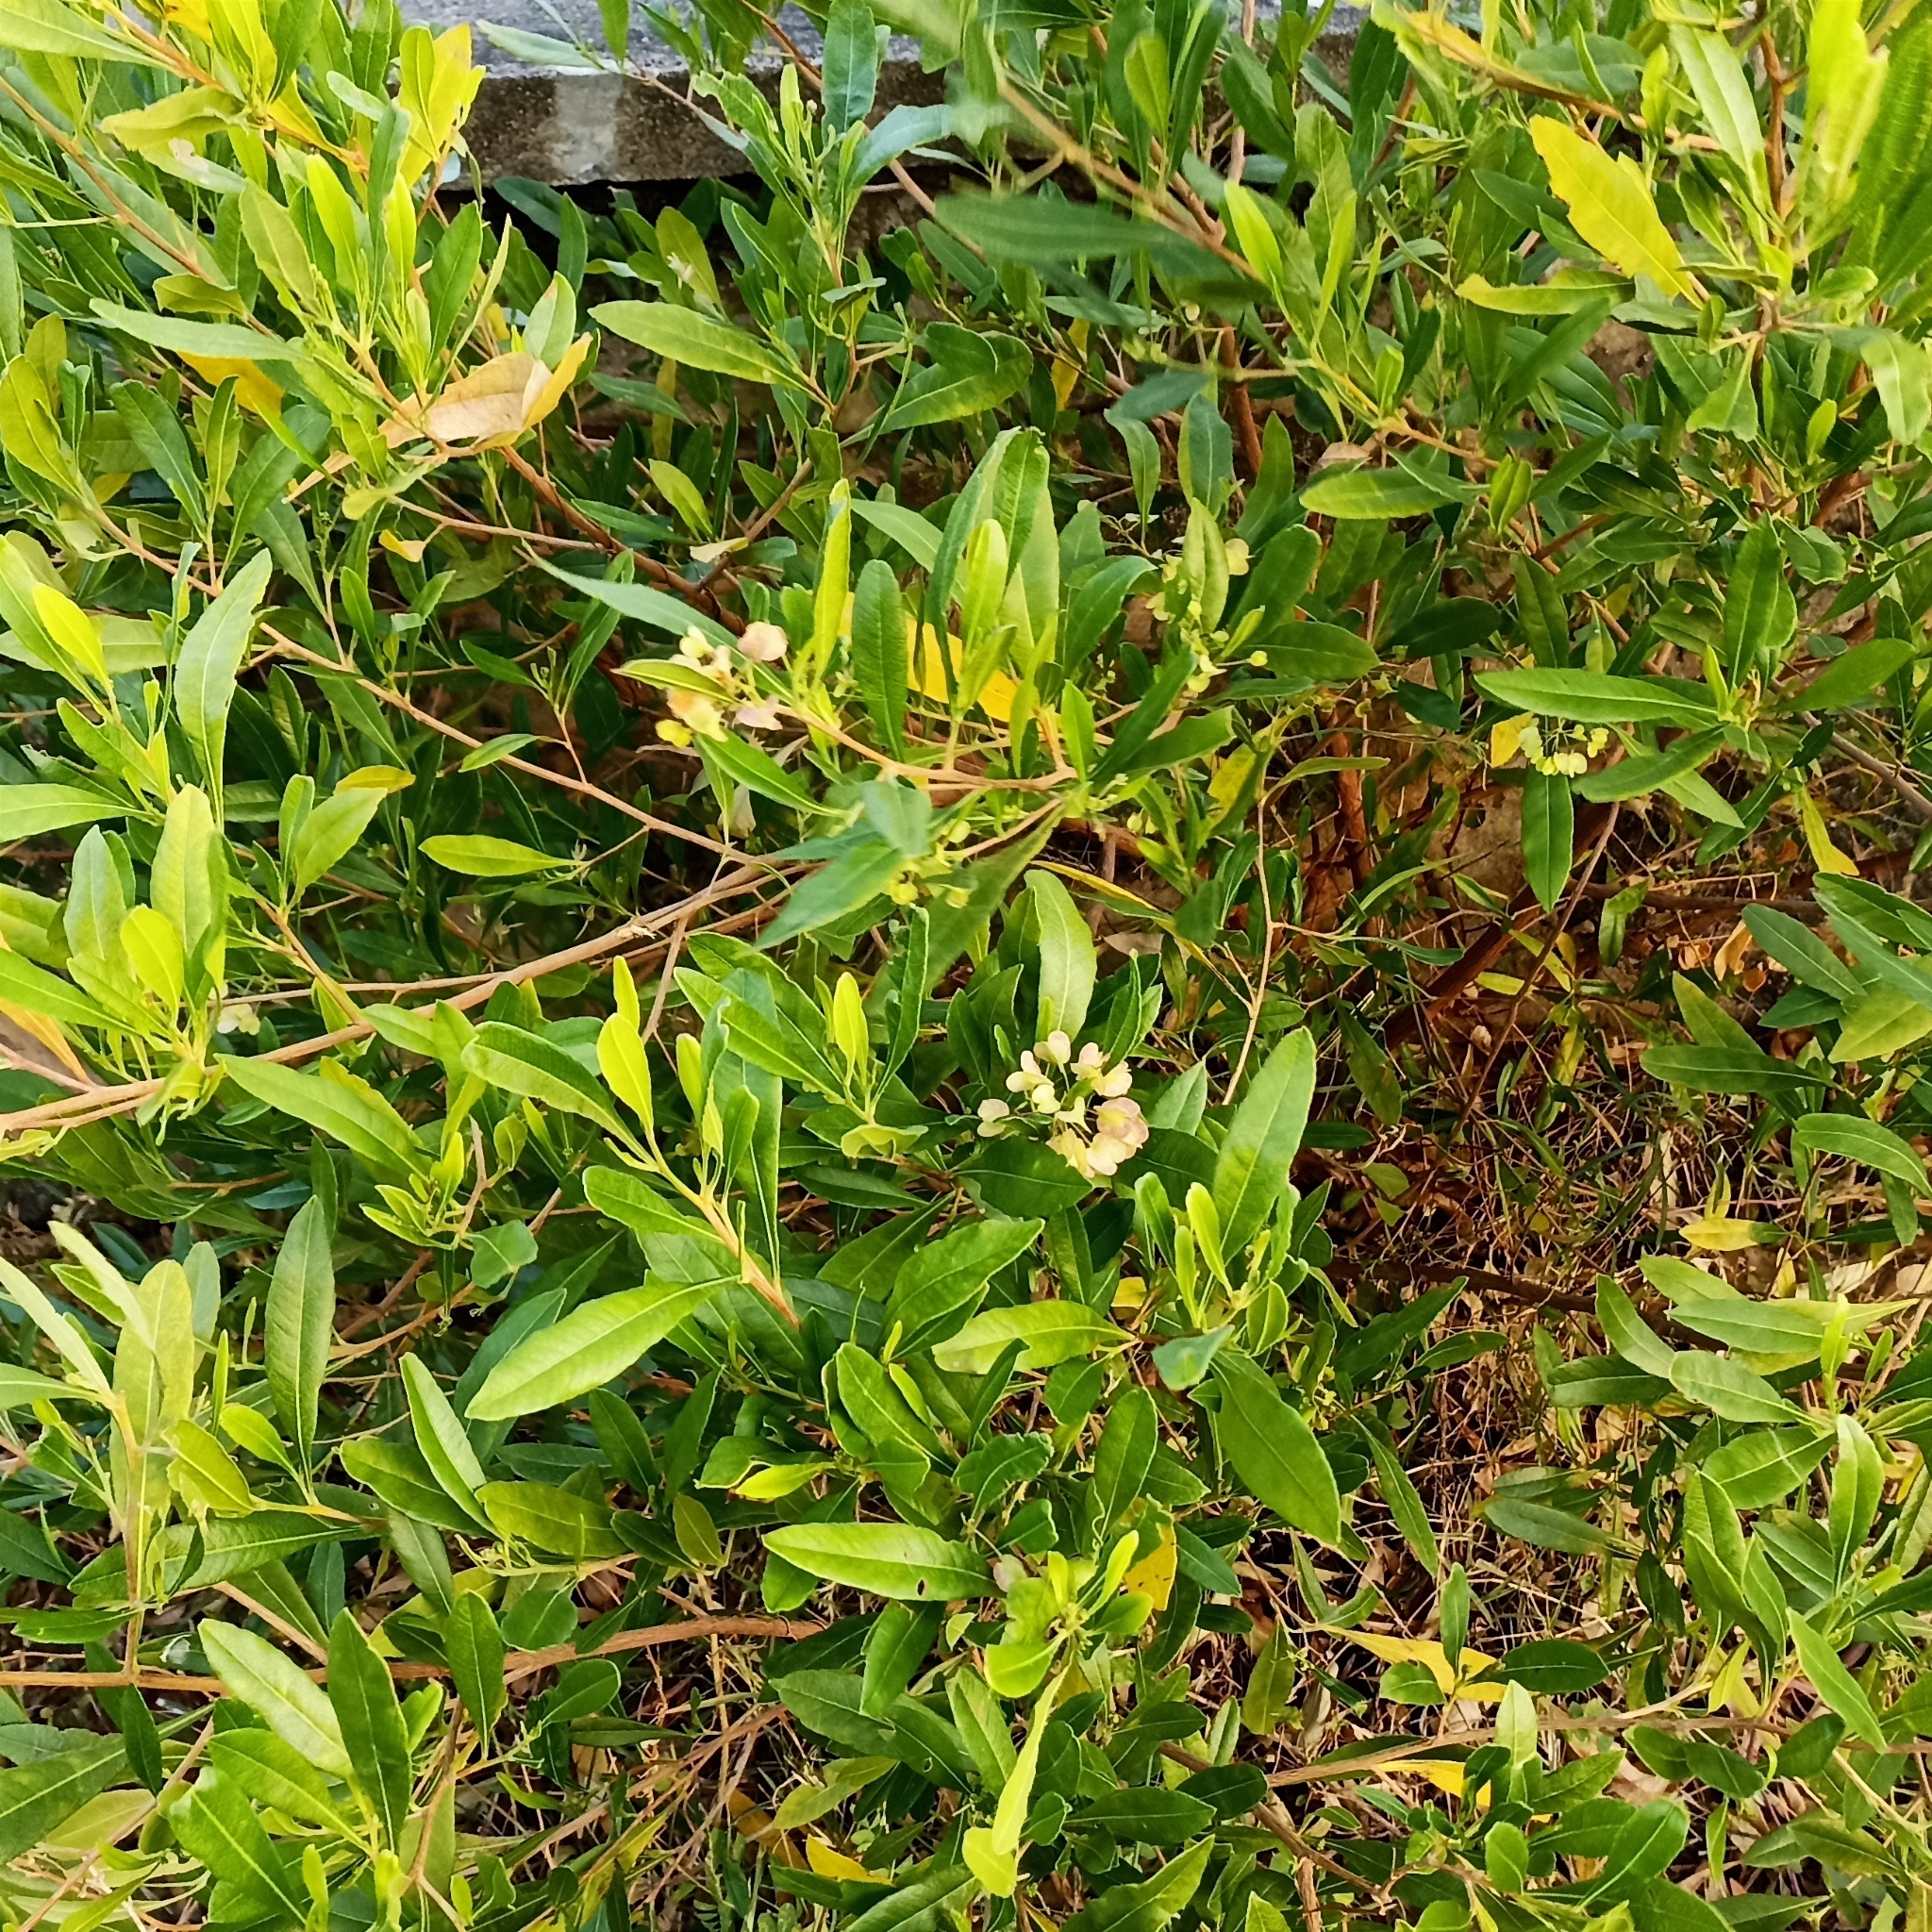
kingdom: Plantae
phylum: Tracheophyta
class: Magnoliopsida
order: Sapindales
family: Sapindaceae
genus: Dodonaea
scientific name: Dodonaea viscosa
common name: Hopbush
